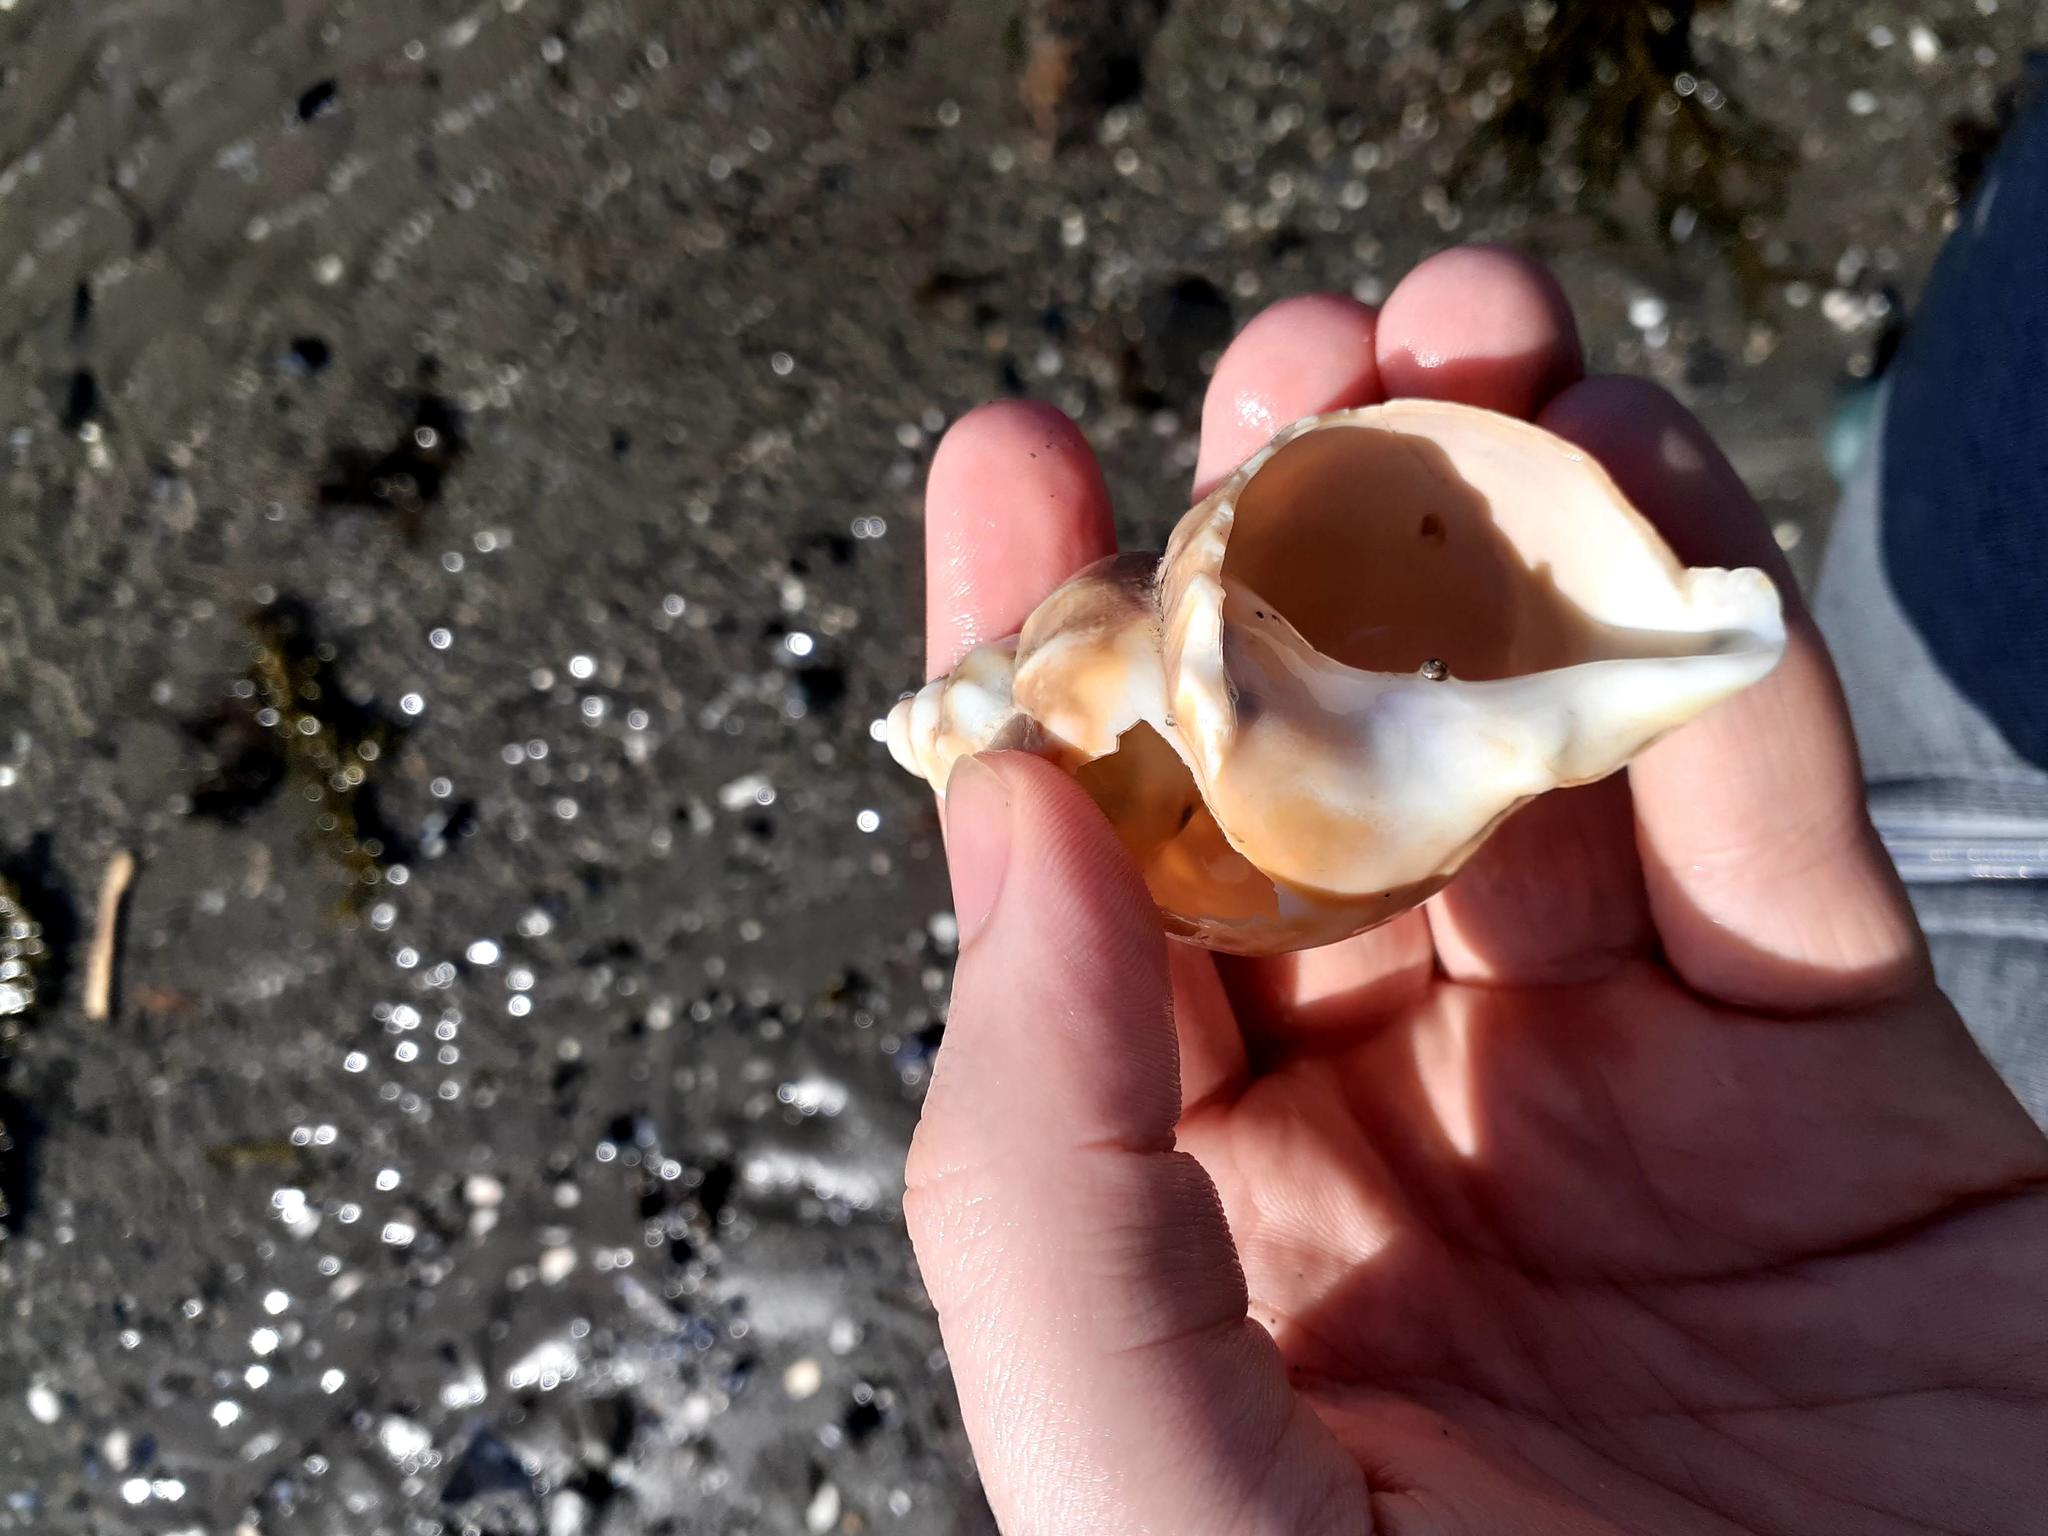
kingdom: Animalia
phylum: Mollusca
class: Gastropoda
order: Neogastropoda
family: Buccinidae
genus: Buccinum
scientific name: Buccinum undatum
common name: Common whelk
